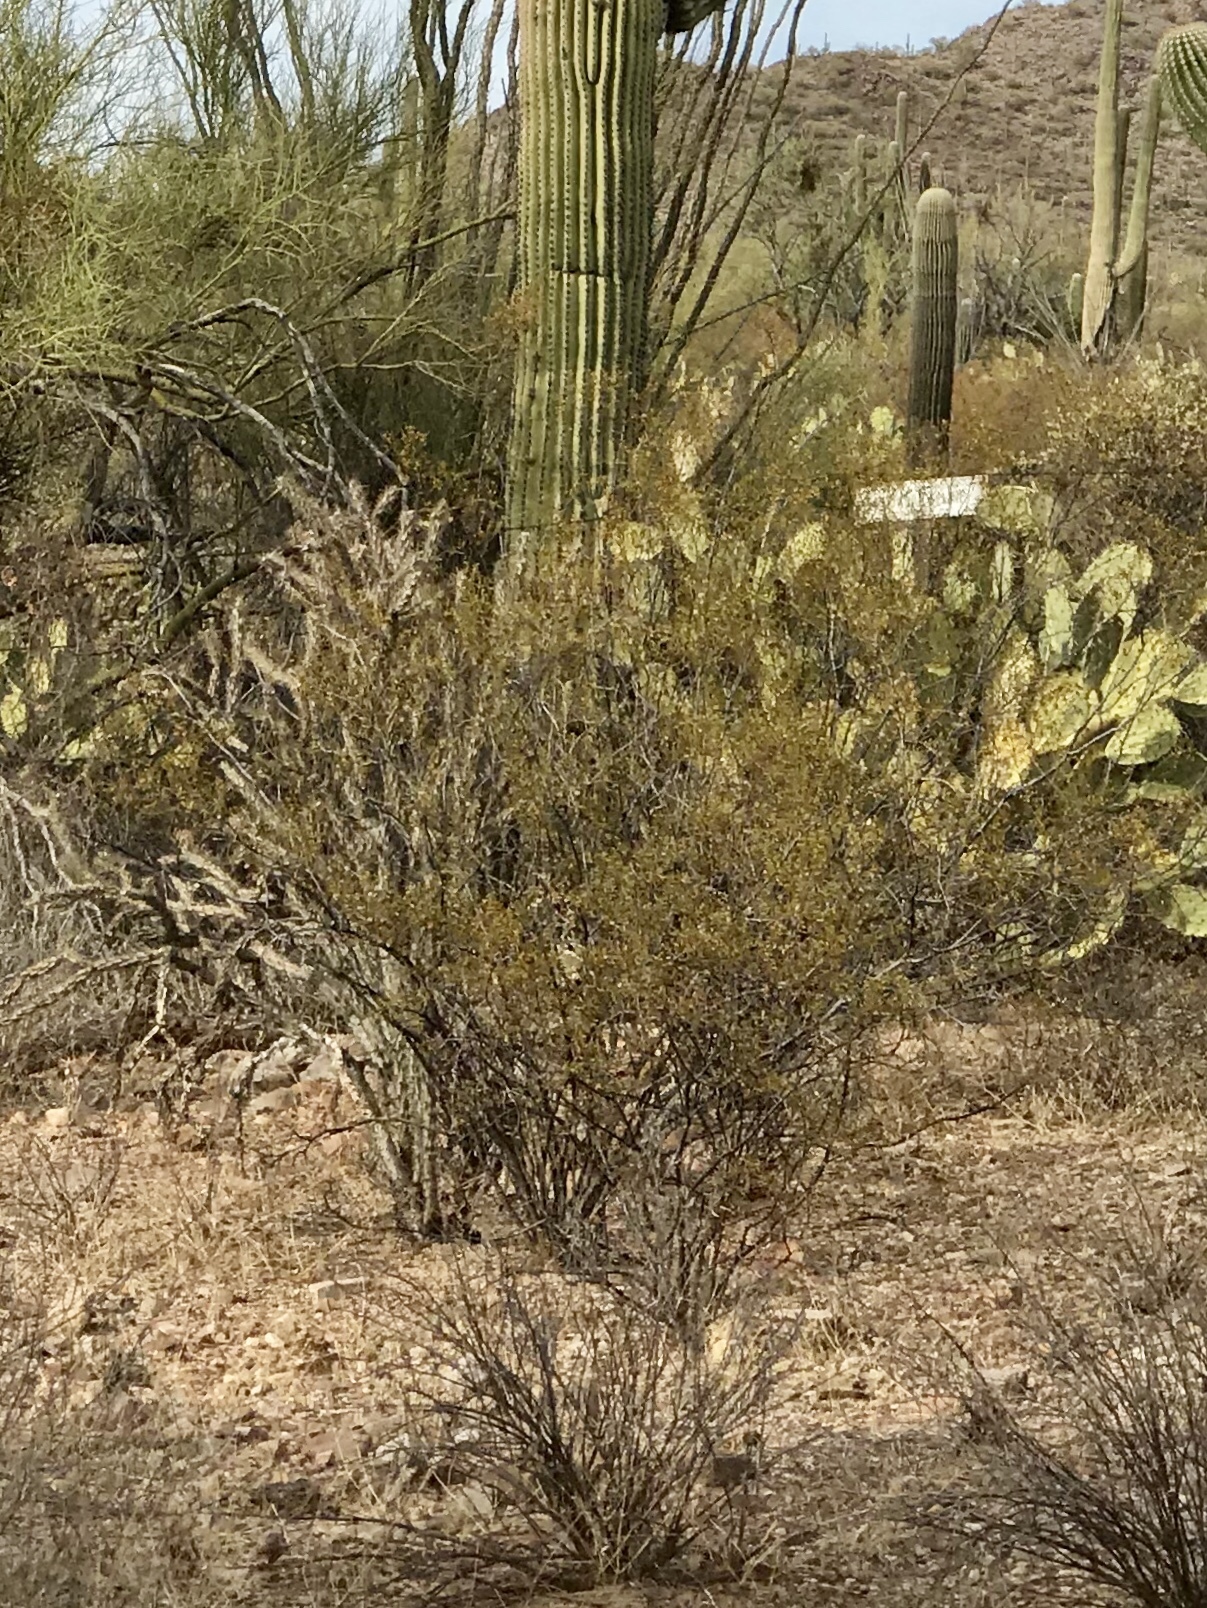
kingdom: Plantae
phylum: Tracheophyta
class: Magnoliopsida
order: Zygophyllales
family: Zygophyllaceae
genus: Larrea
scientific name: Larrea tridentata
